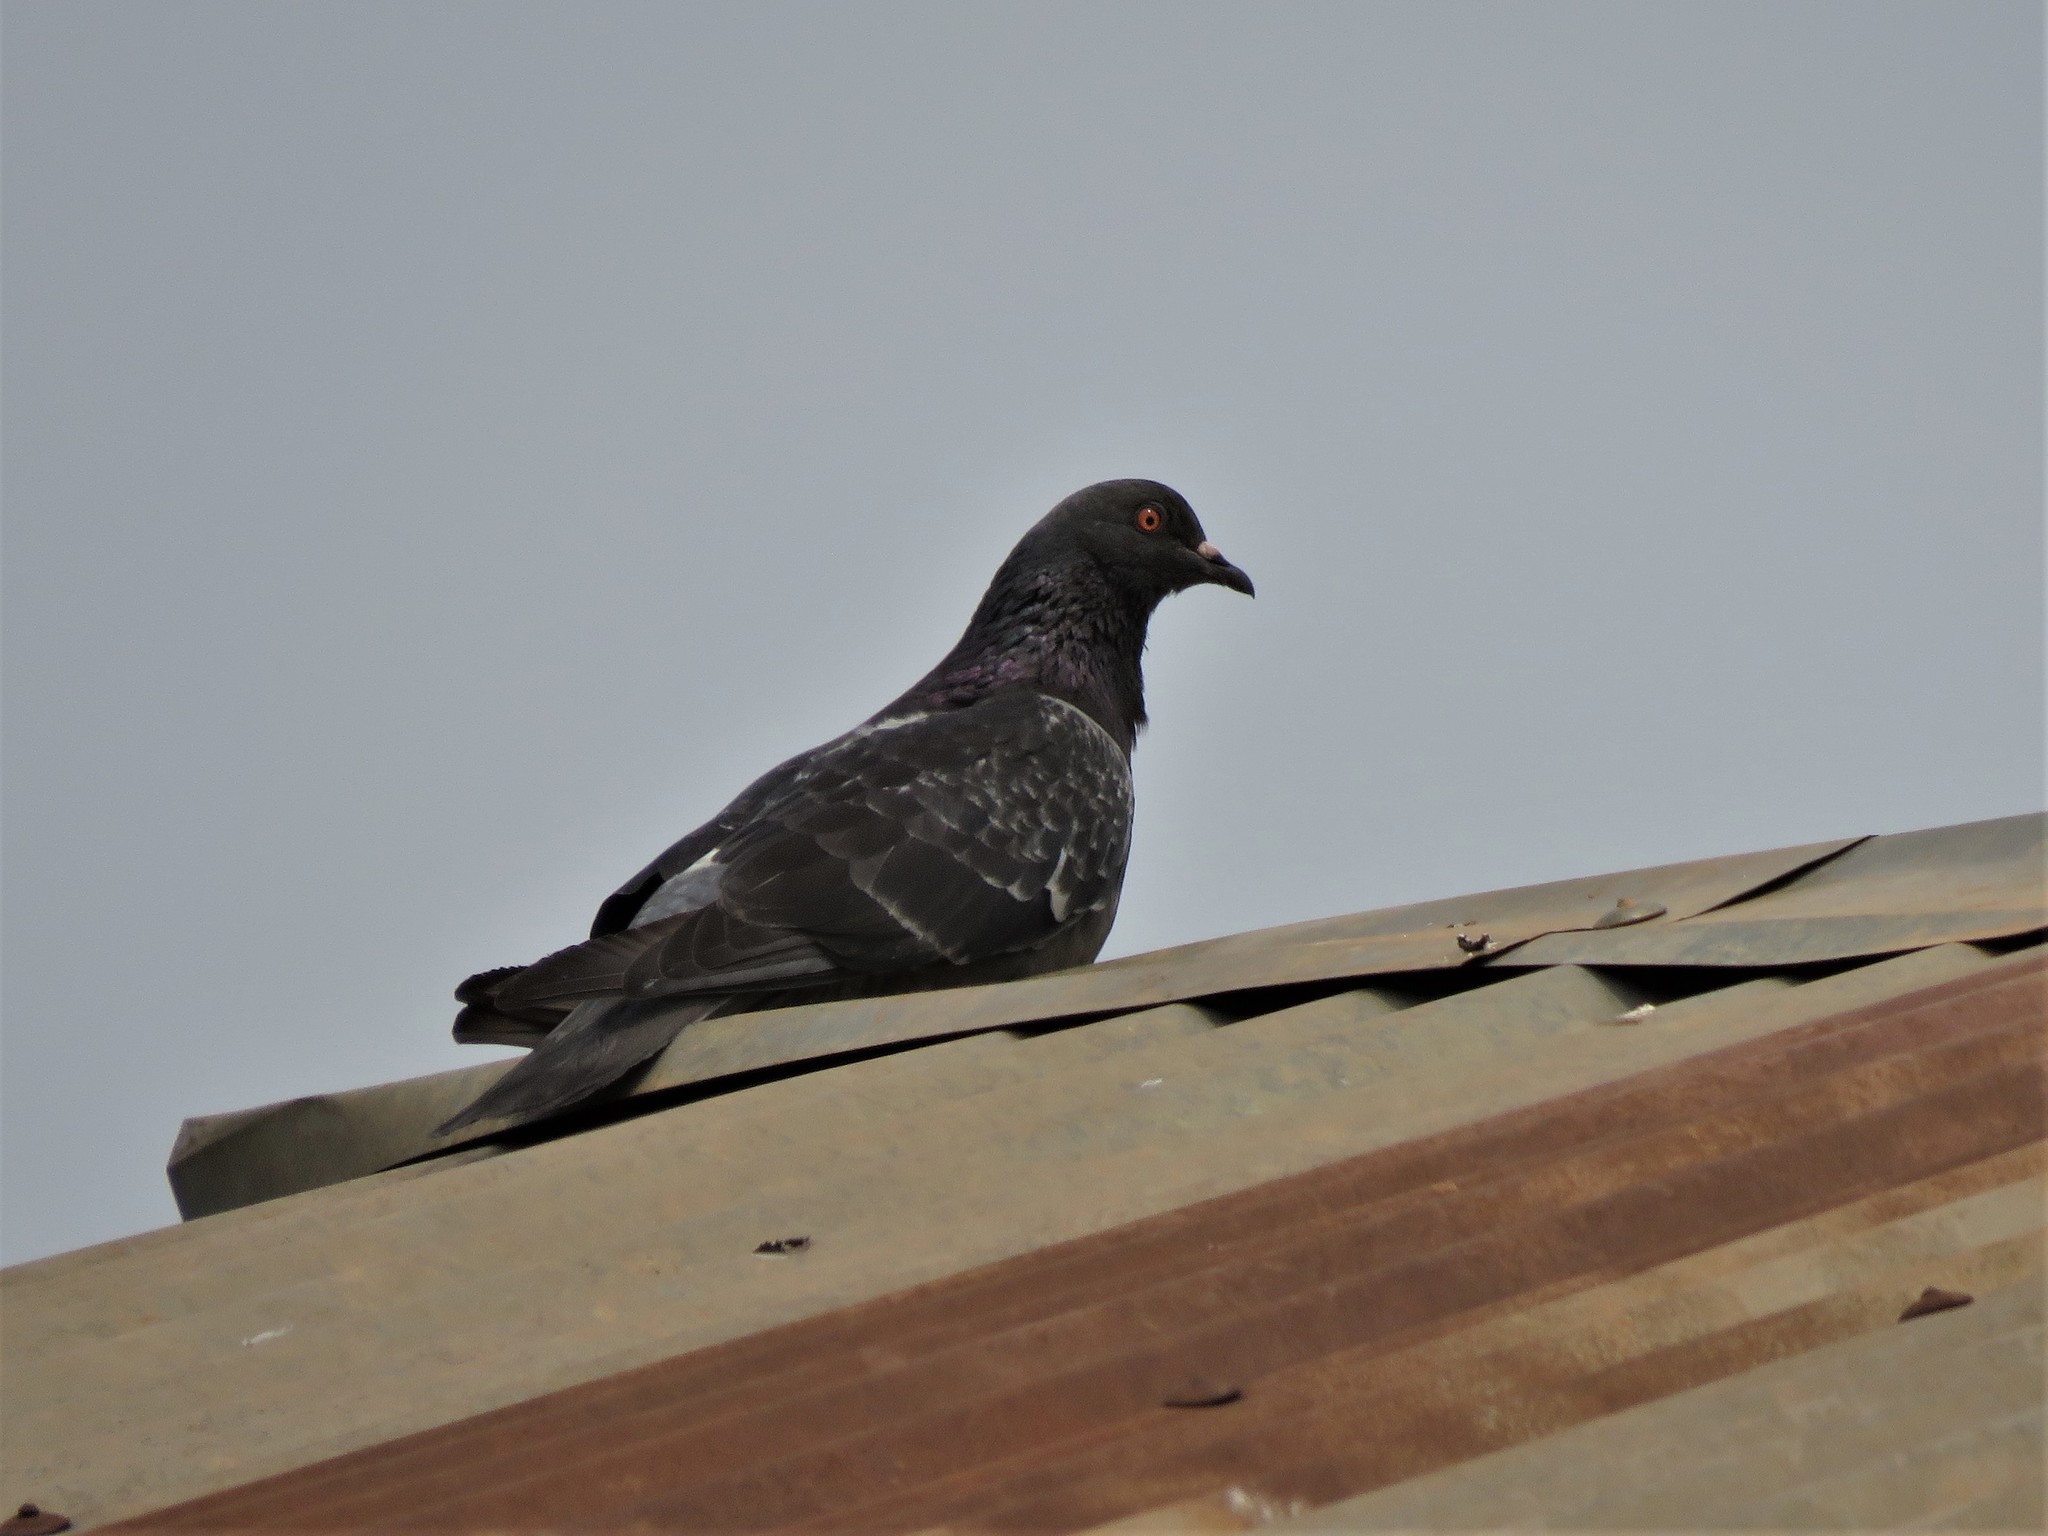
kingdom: Animalia
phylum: Chordata
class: Aves
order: Columbiformes
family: Columbidae
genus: Columba
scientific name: Columba livia
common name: Rock pigeon
